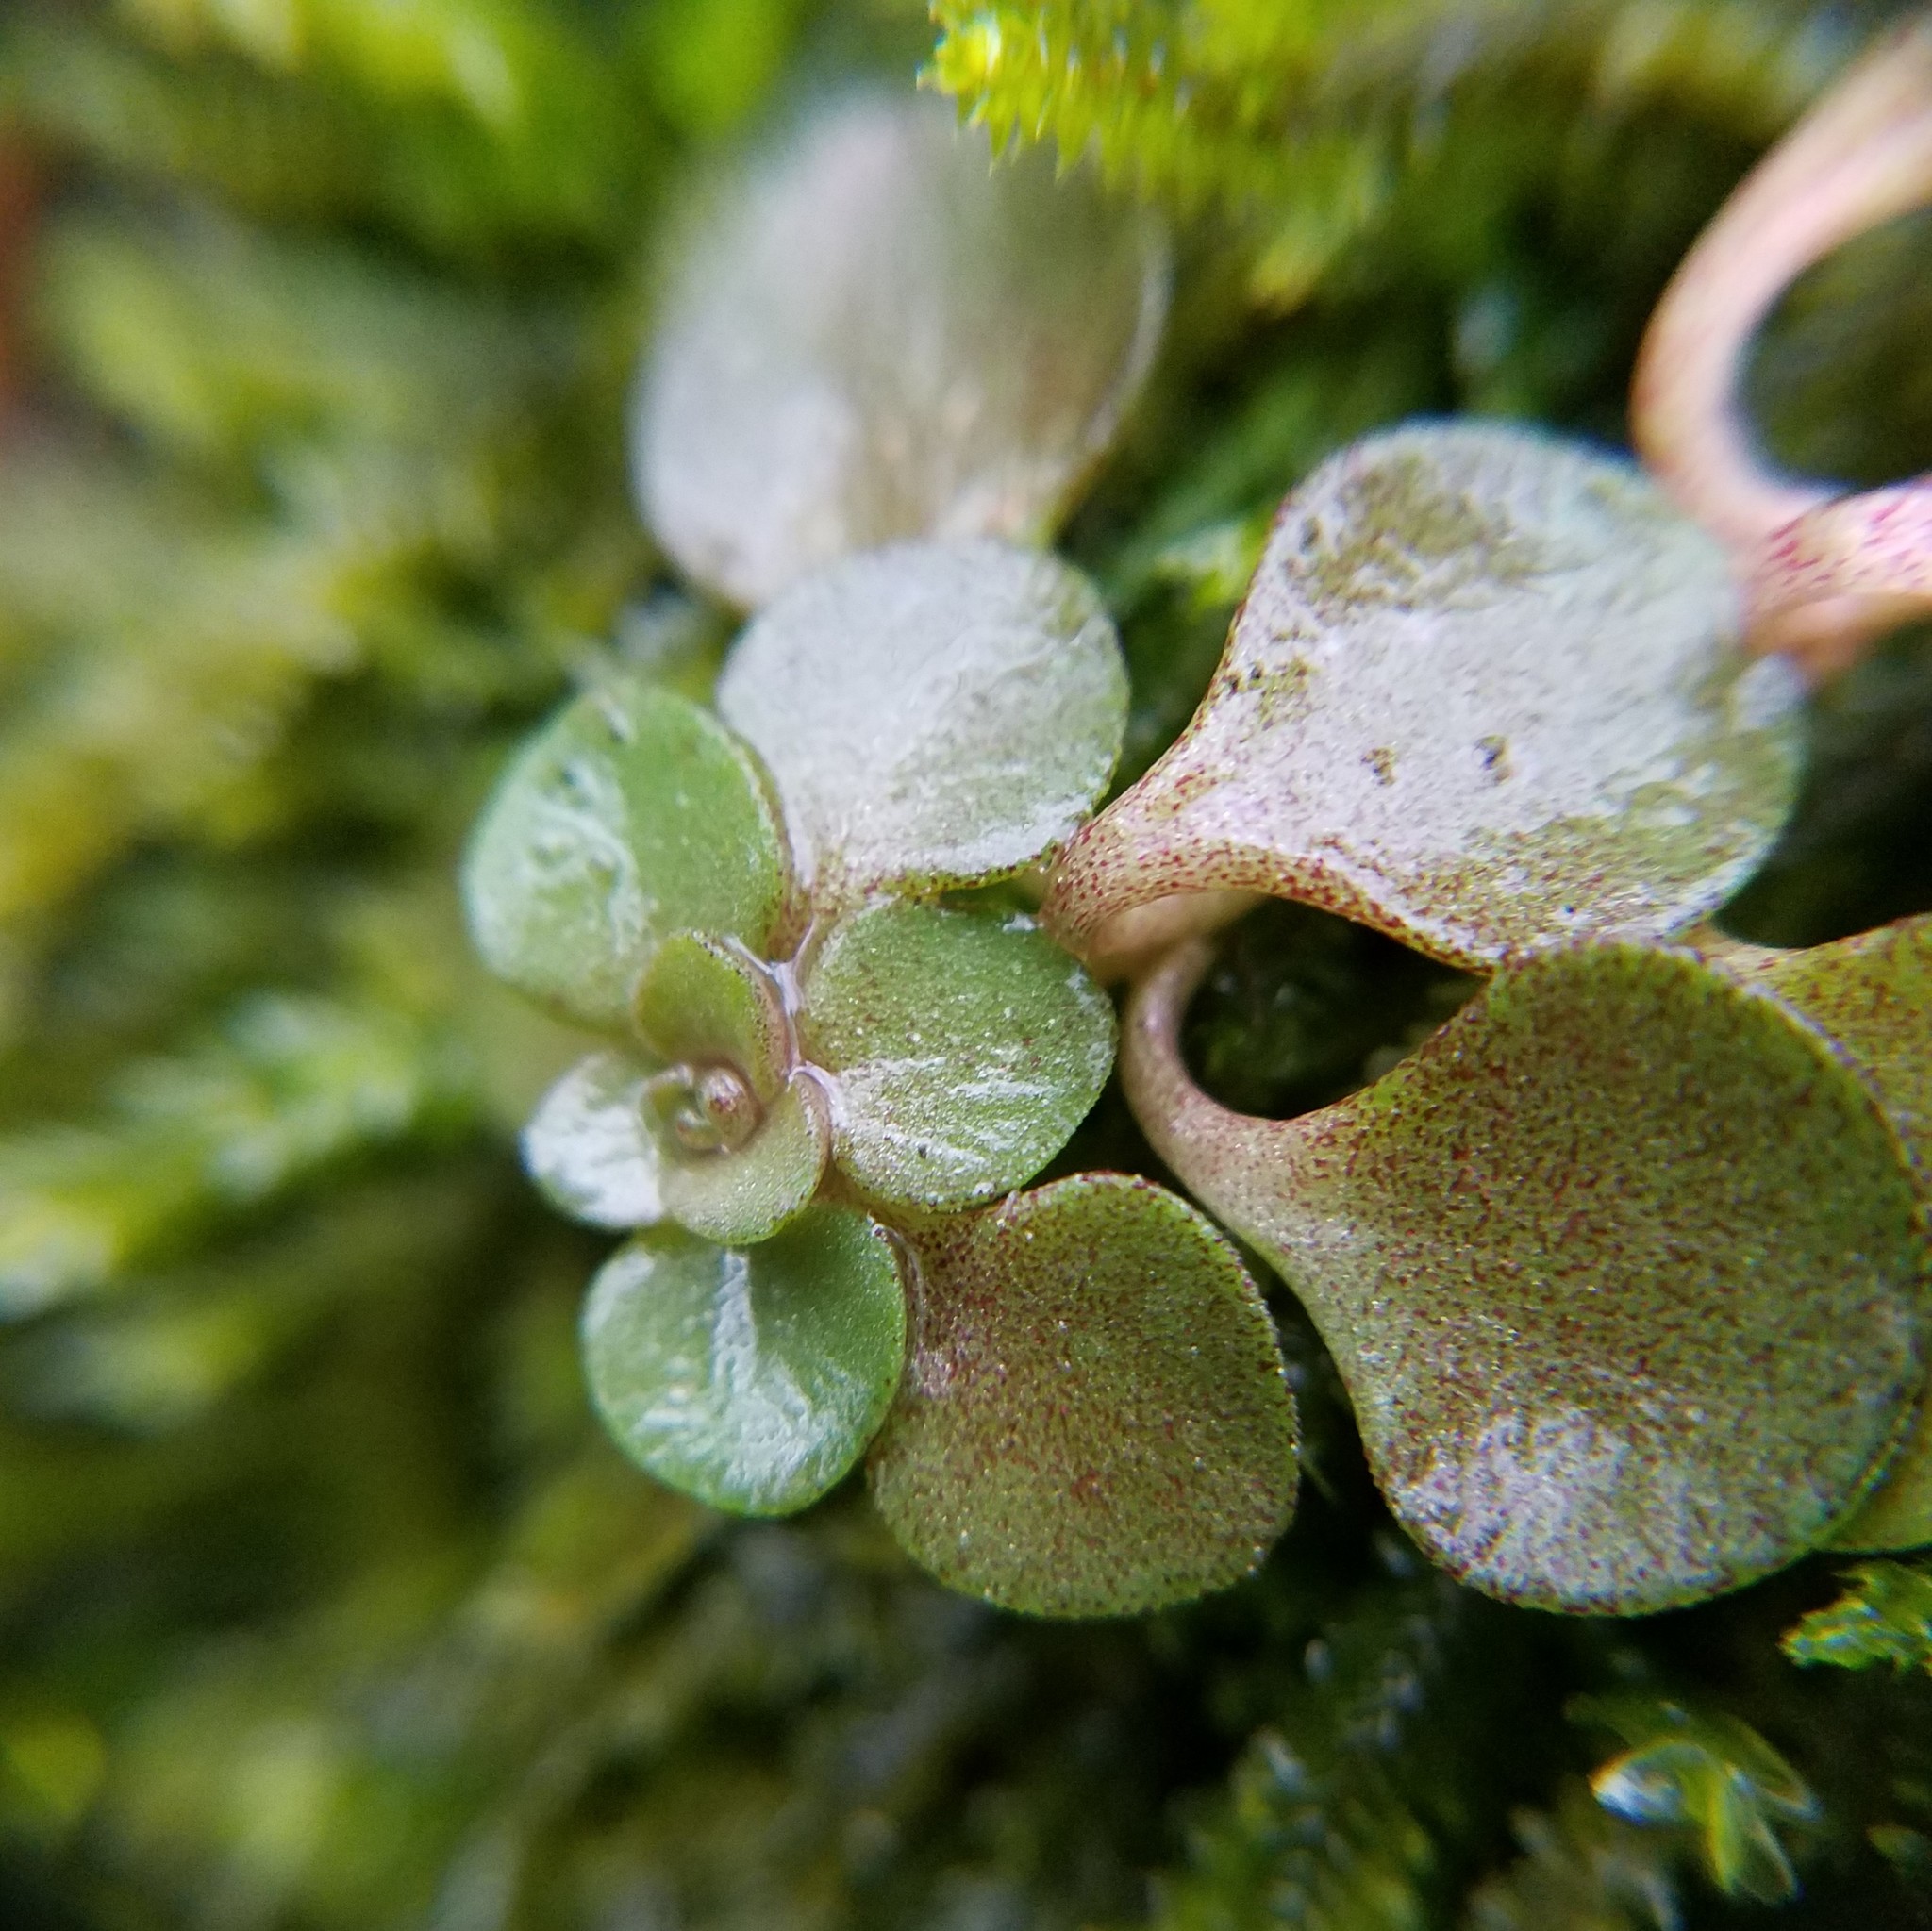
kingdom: Plantae
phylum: Tracheophyta
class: Magnoliopsida
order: Saxifragales
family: Crassulaceae
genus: Sedum
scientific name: Sedum ternatum
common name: Wild stonecrop
